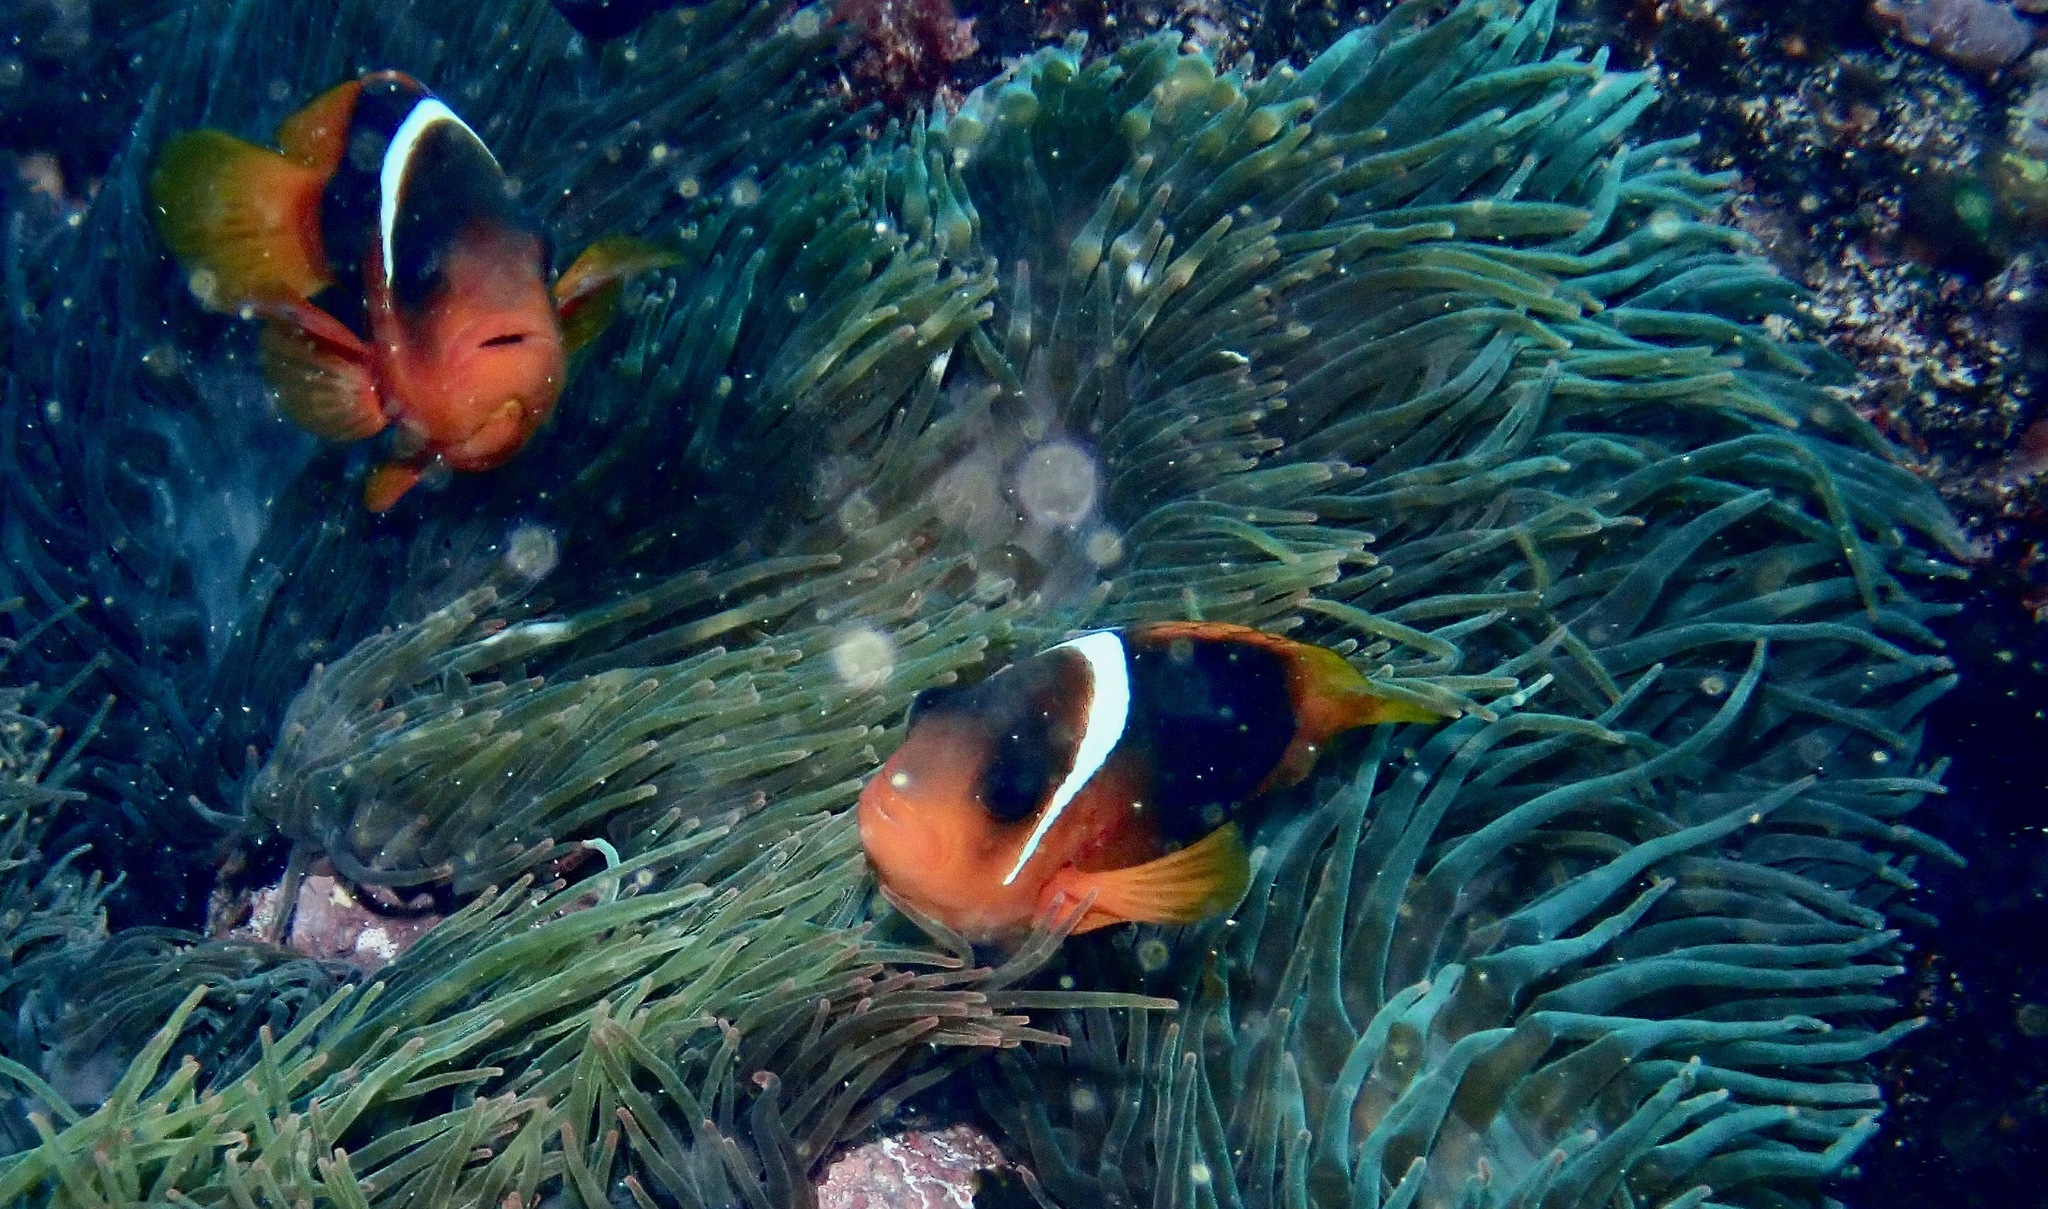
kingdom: Animalia
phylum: Chordata
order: Perciformes
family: Pomacentridae
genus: Amphiprion
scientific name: Amphiprion rubrocinctus
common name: Australian anemonefish
